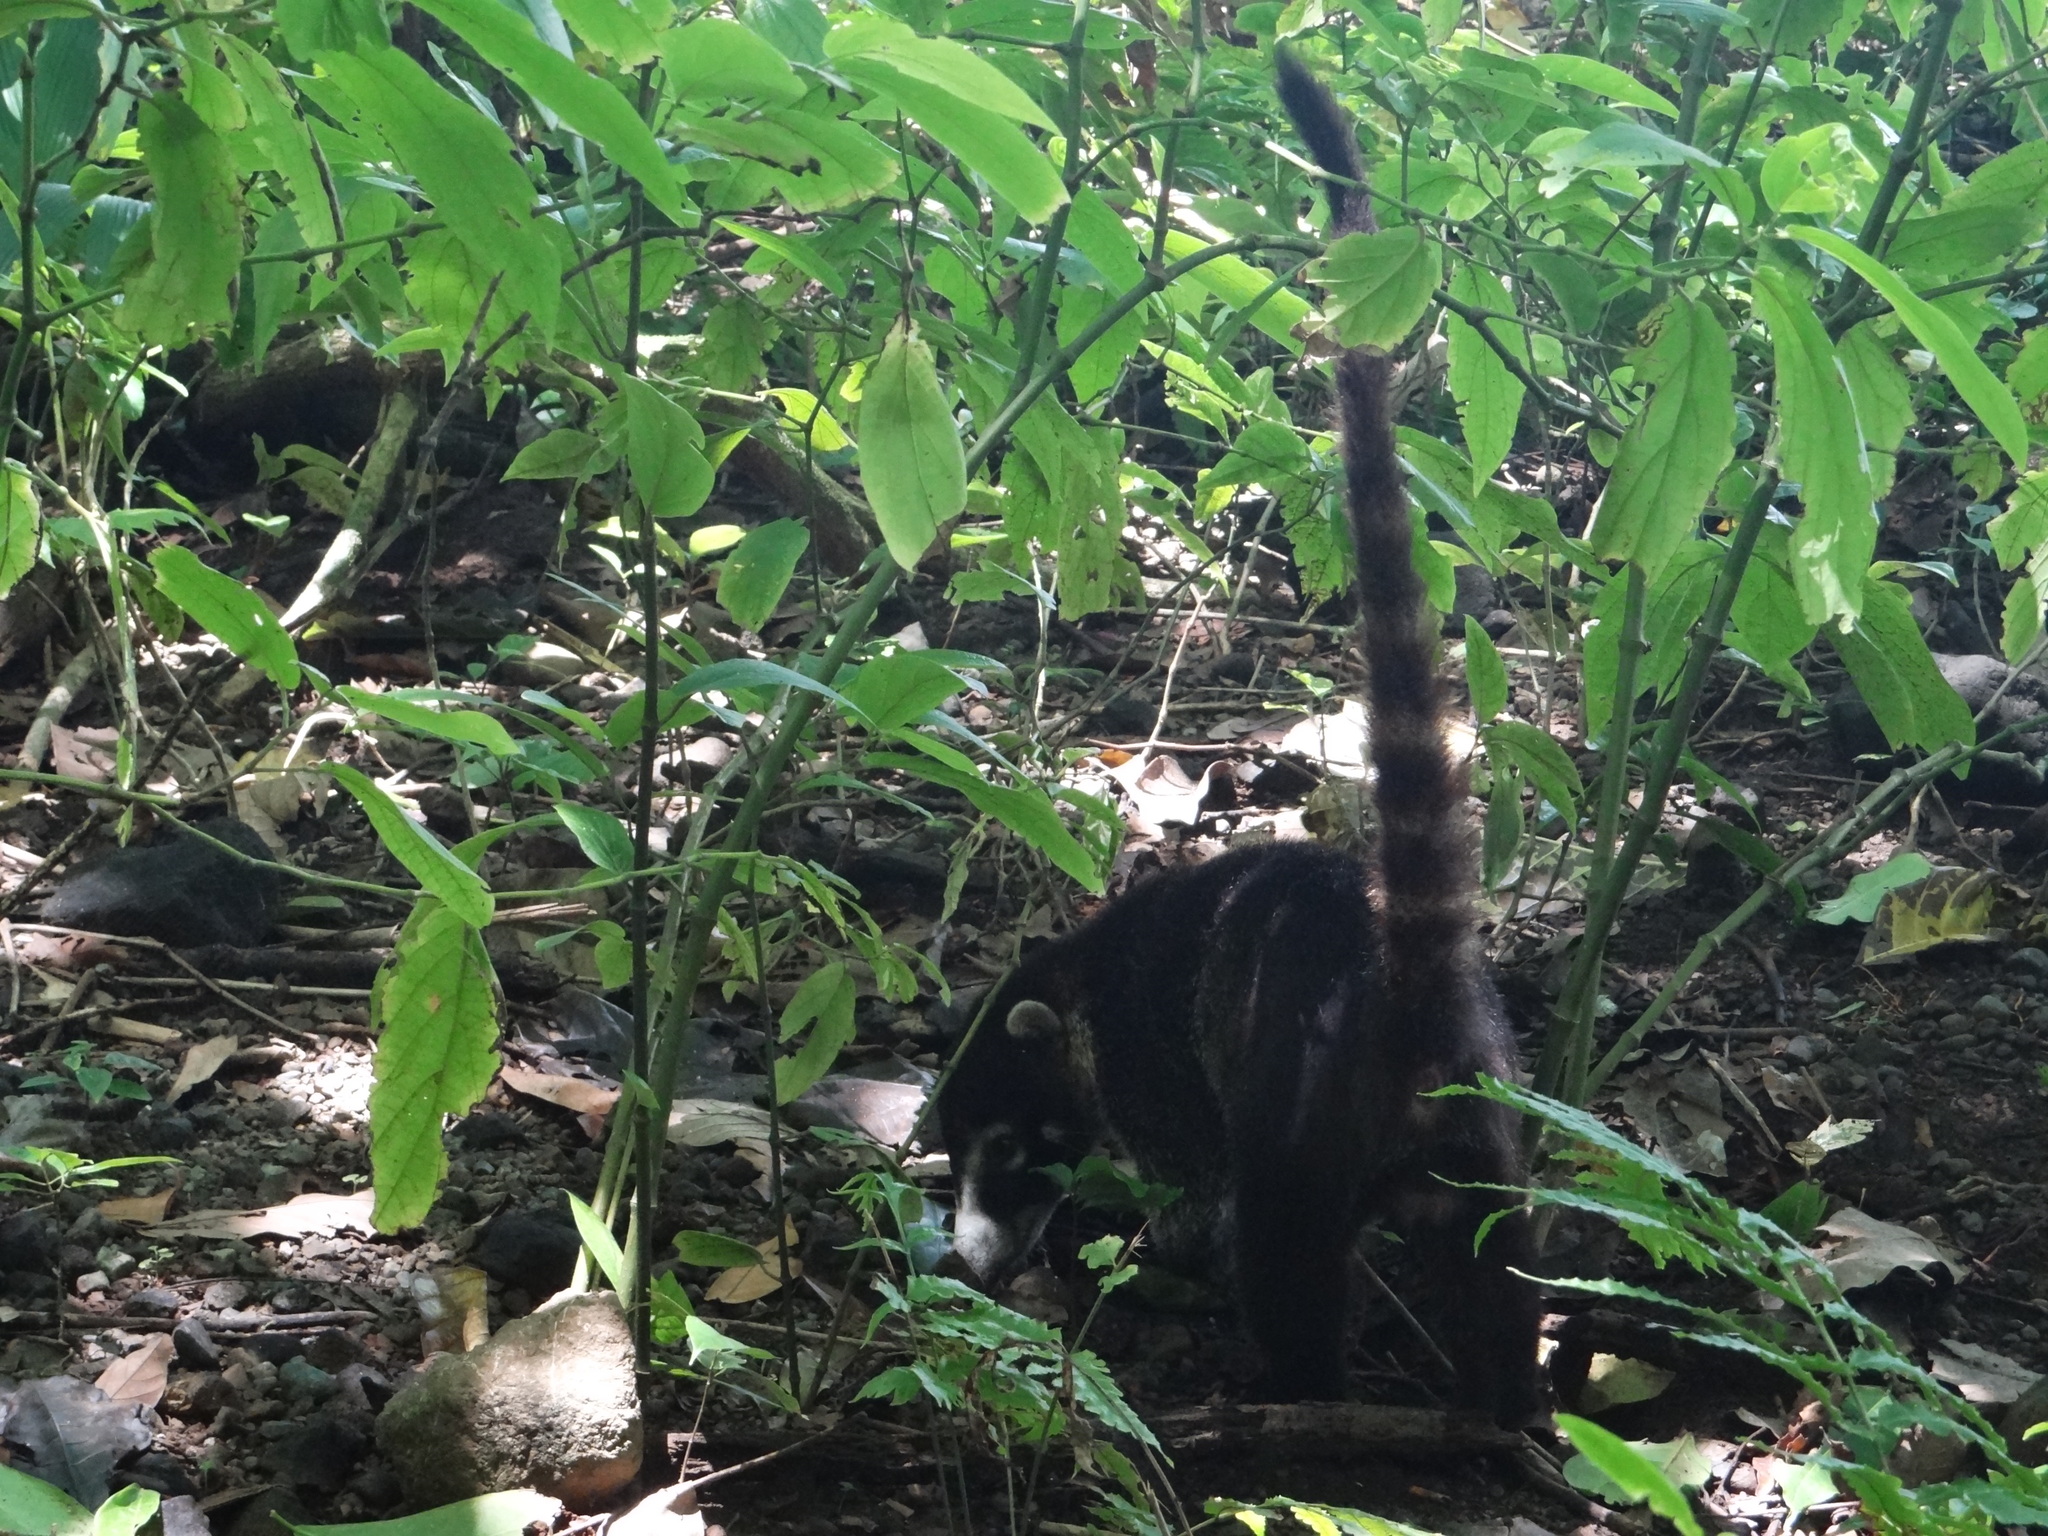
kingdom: Animalia
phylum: Chordata
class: Mammalia
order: Carnivora
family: Procyonidae
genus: Nasua
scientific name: Nasua narica
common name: White-nosed coati
